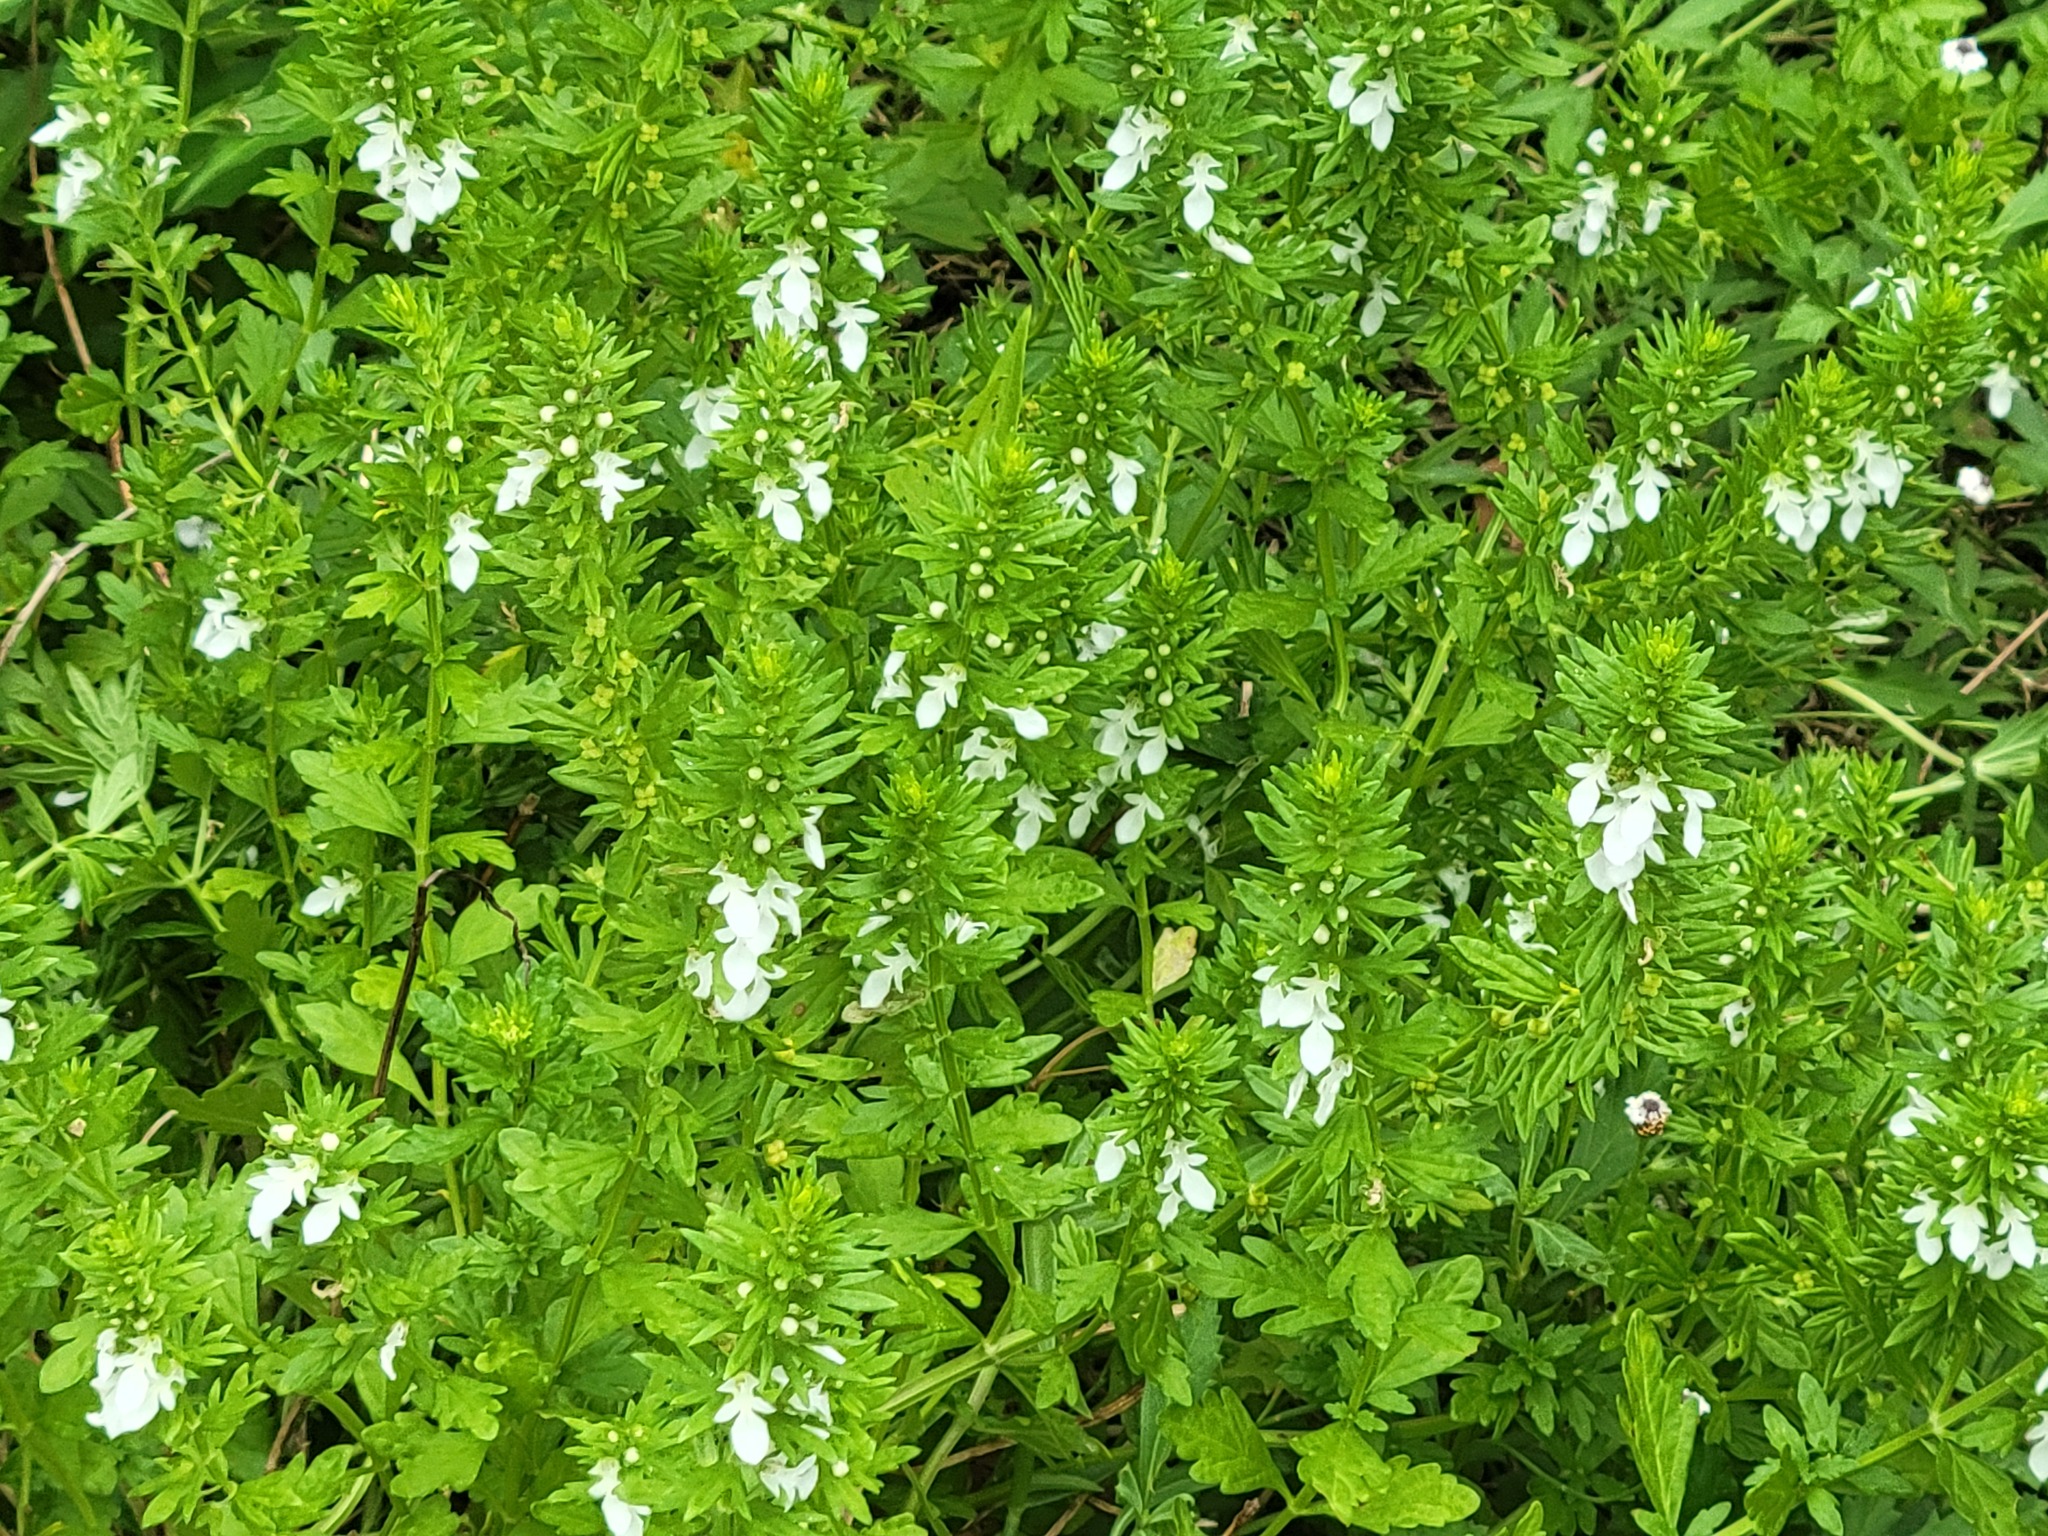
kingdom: Plantae
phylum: Tracheophyta
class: Magnoliopsida
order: Lamiales
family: Lamiaceae
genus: Teucrium
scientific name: Teucrium cubense
